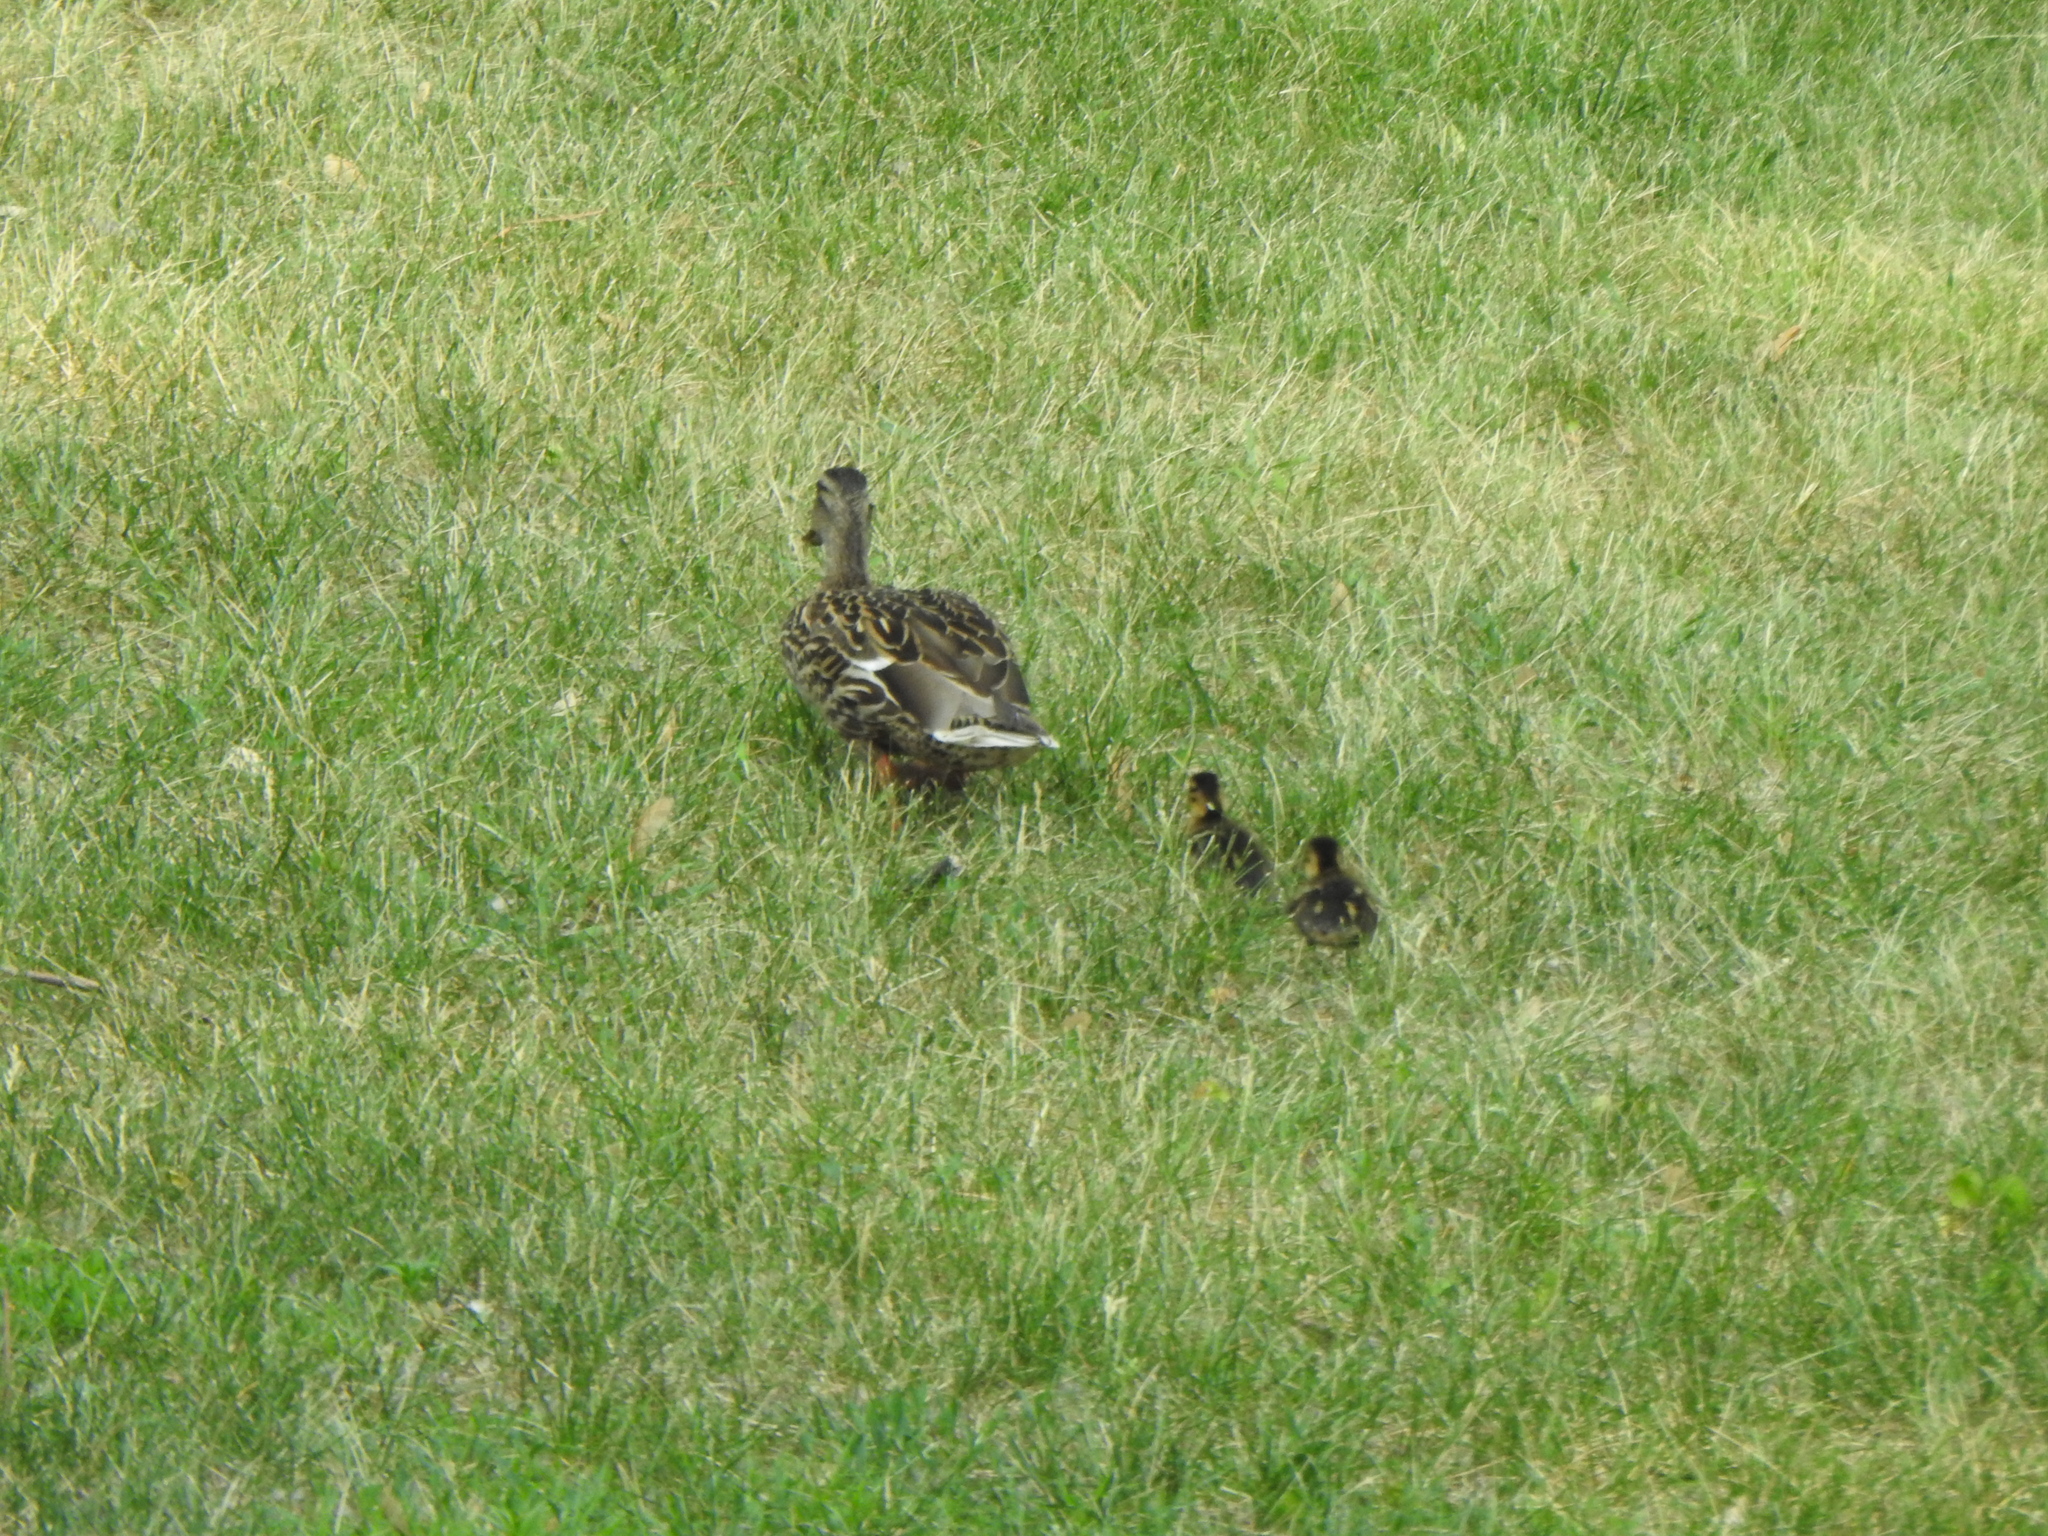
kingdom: Animalia
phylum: Chordata
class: Aves
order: Anseriformes
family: Anatidae
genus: Anas
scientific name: Anas platyrhynchos
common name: Mallard
